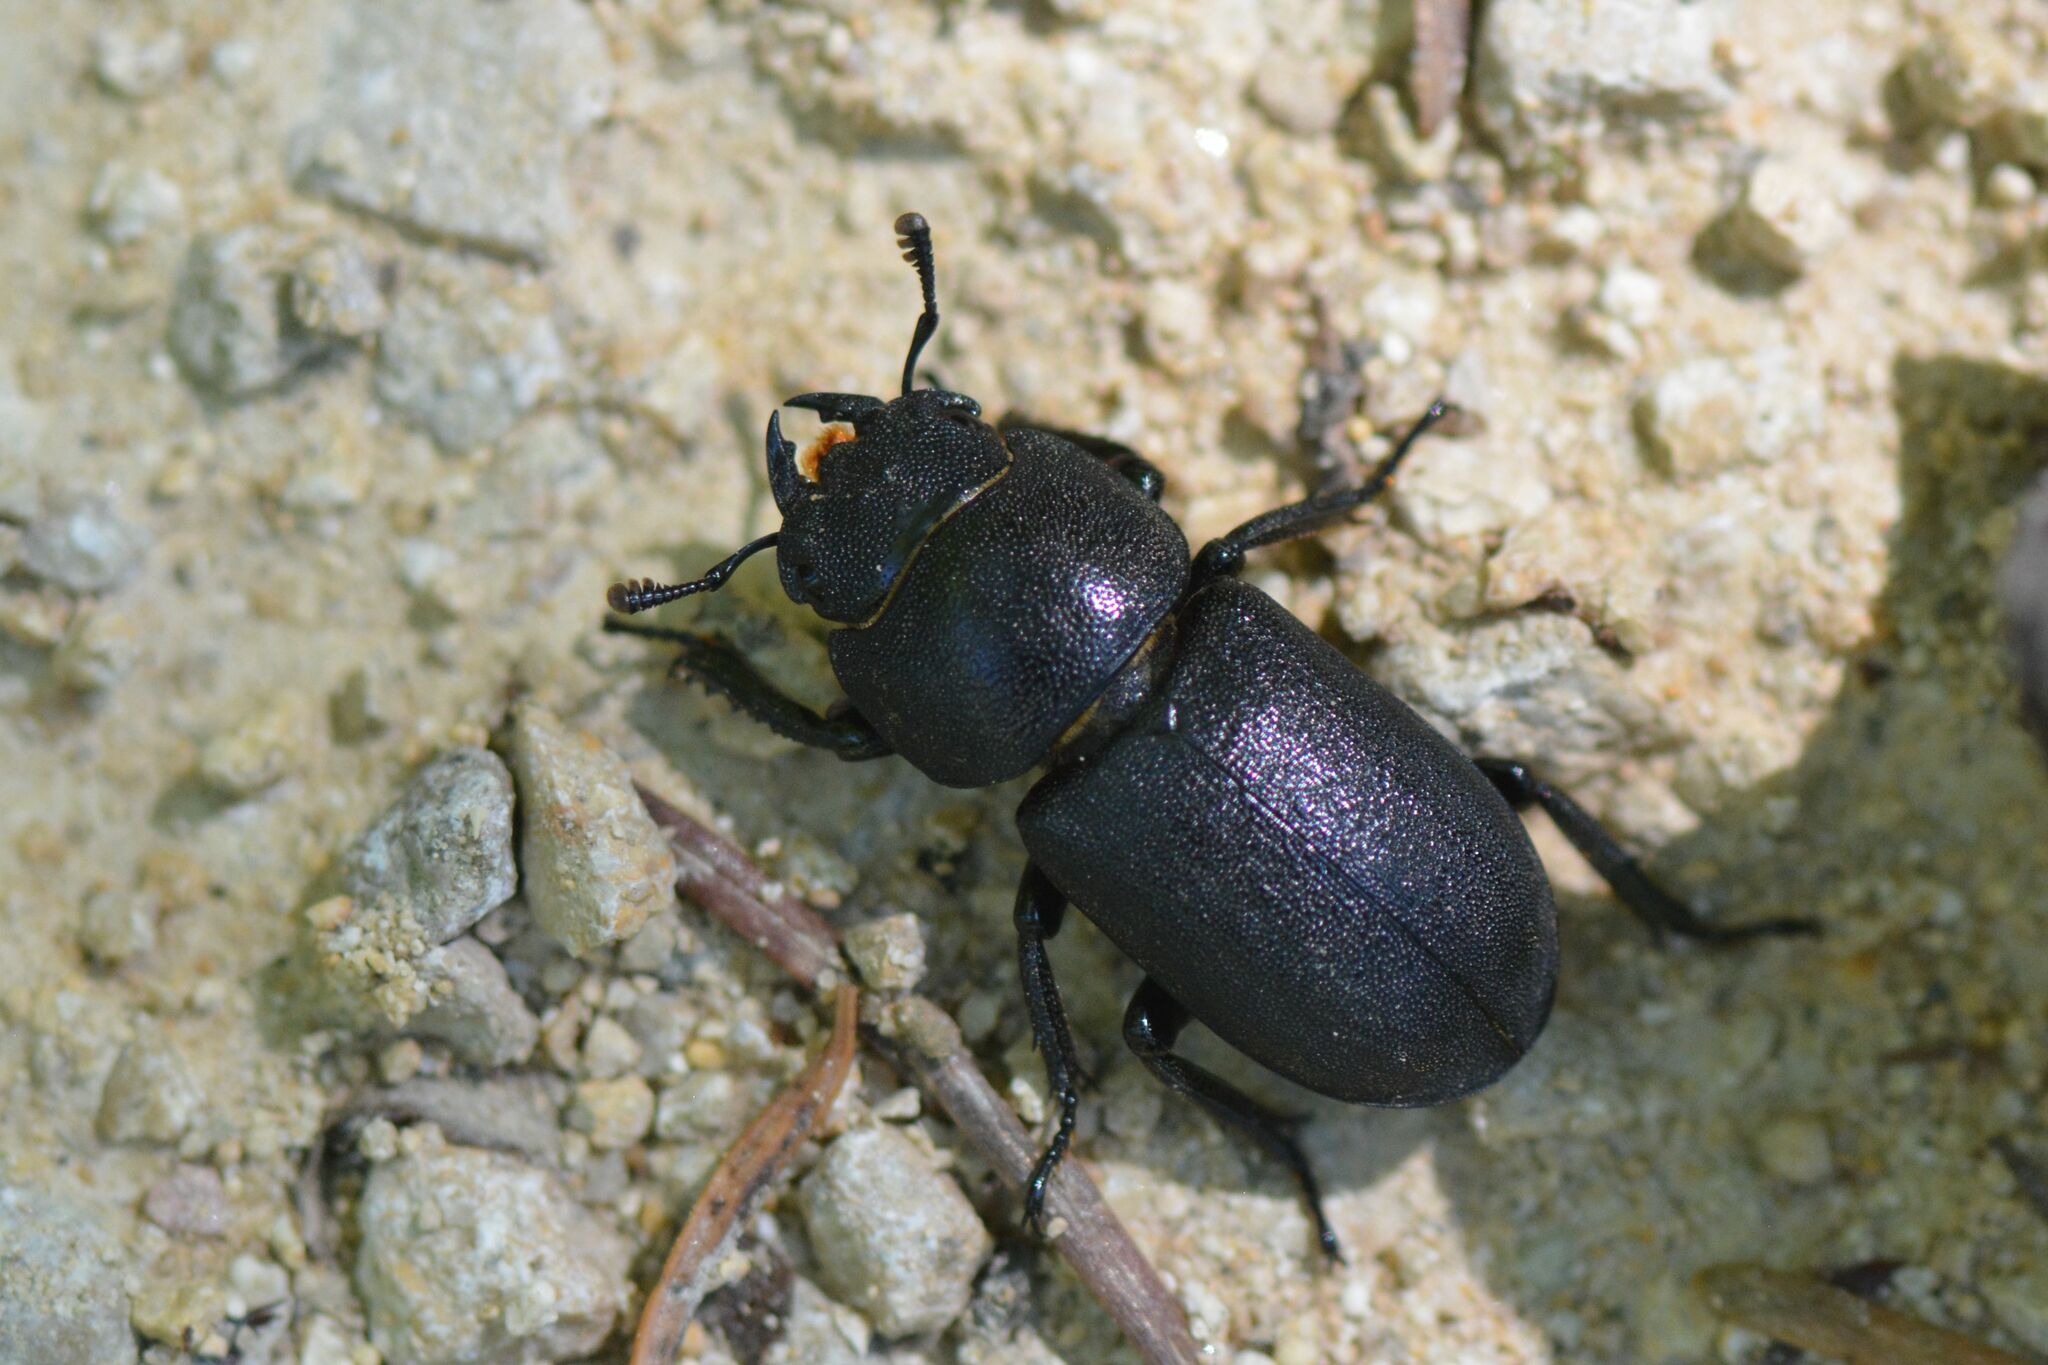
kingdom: Animalia
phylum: Arthropoda
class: Insecta
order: Coleoptera
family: Lucanidae
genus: Dorcus
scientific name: Dorcus parallelipipedus
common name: Lesser stag beetle
